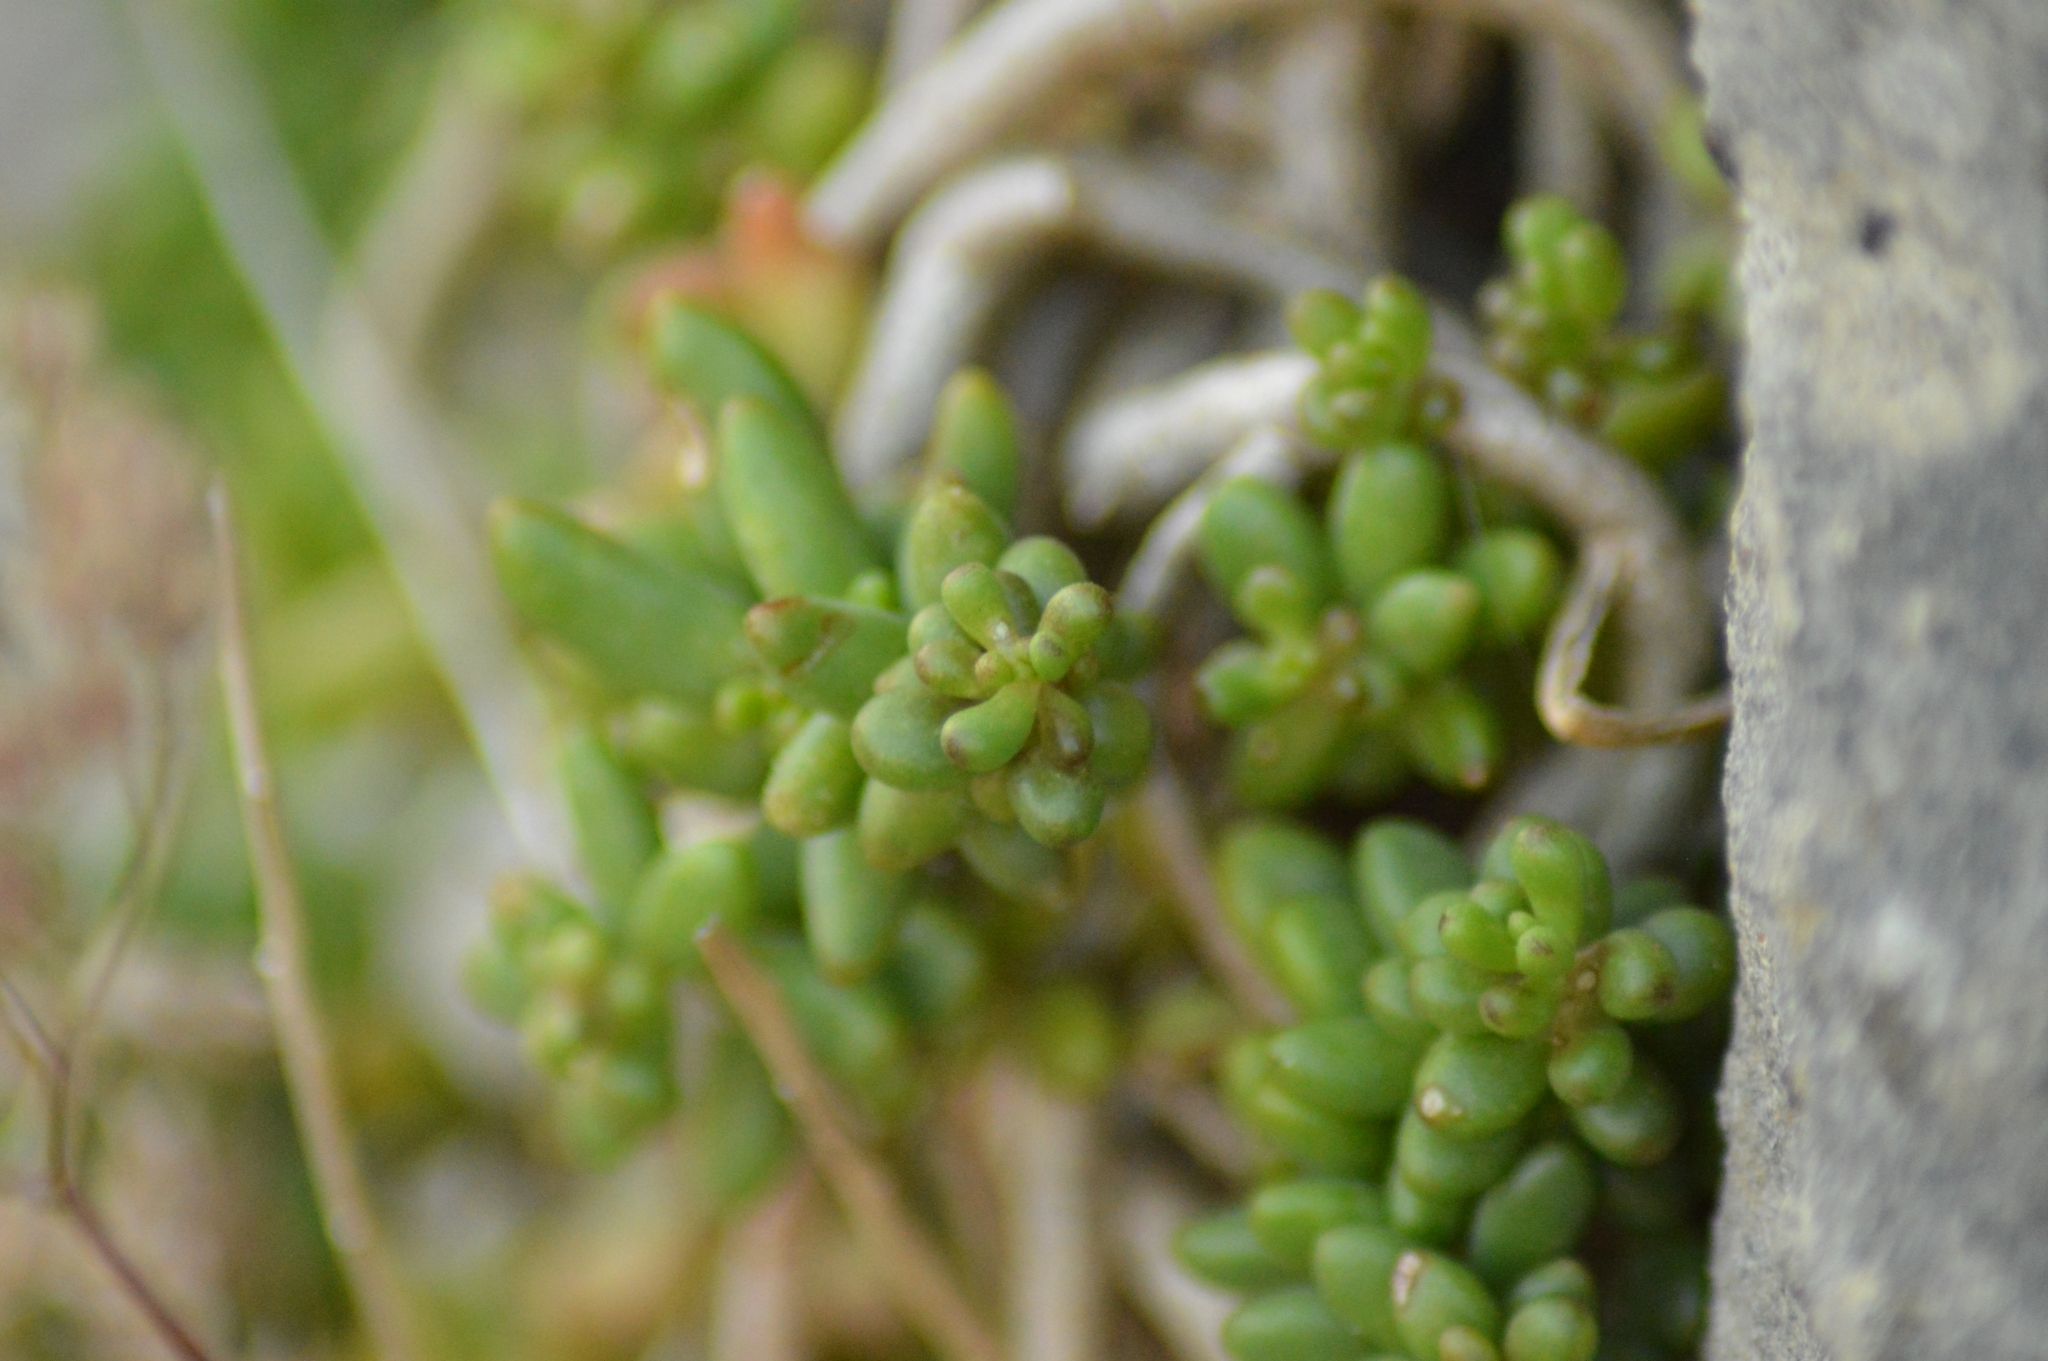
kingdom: Plantae
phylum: Tracheophyta
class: Magnoliopsida
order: Saxifragales
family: Crassulaceae
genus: Sedum
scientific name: Sedum album
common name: White stonecrop
